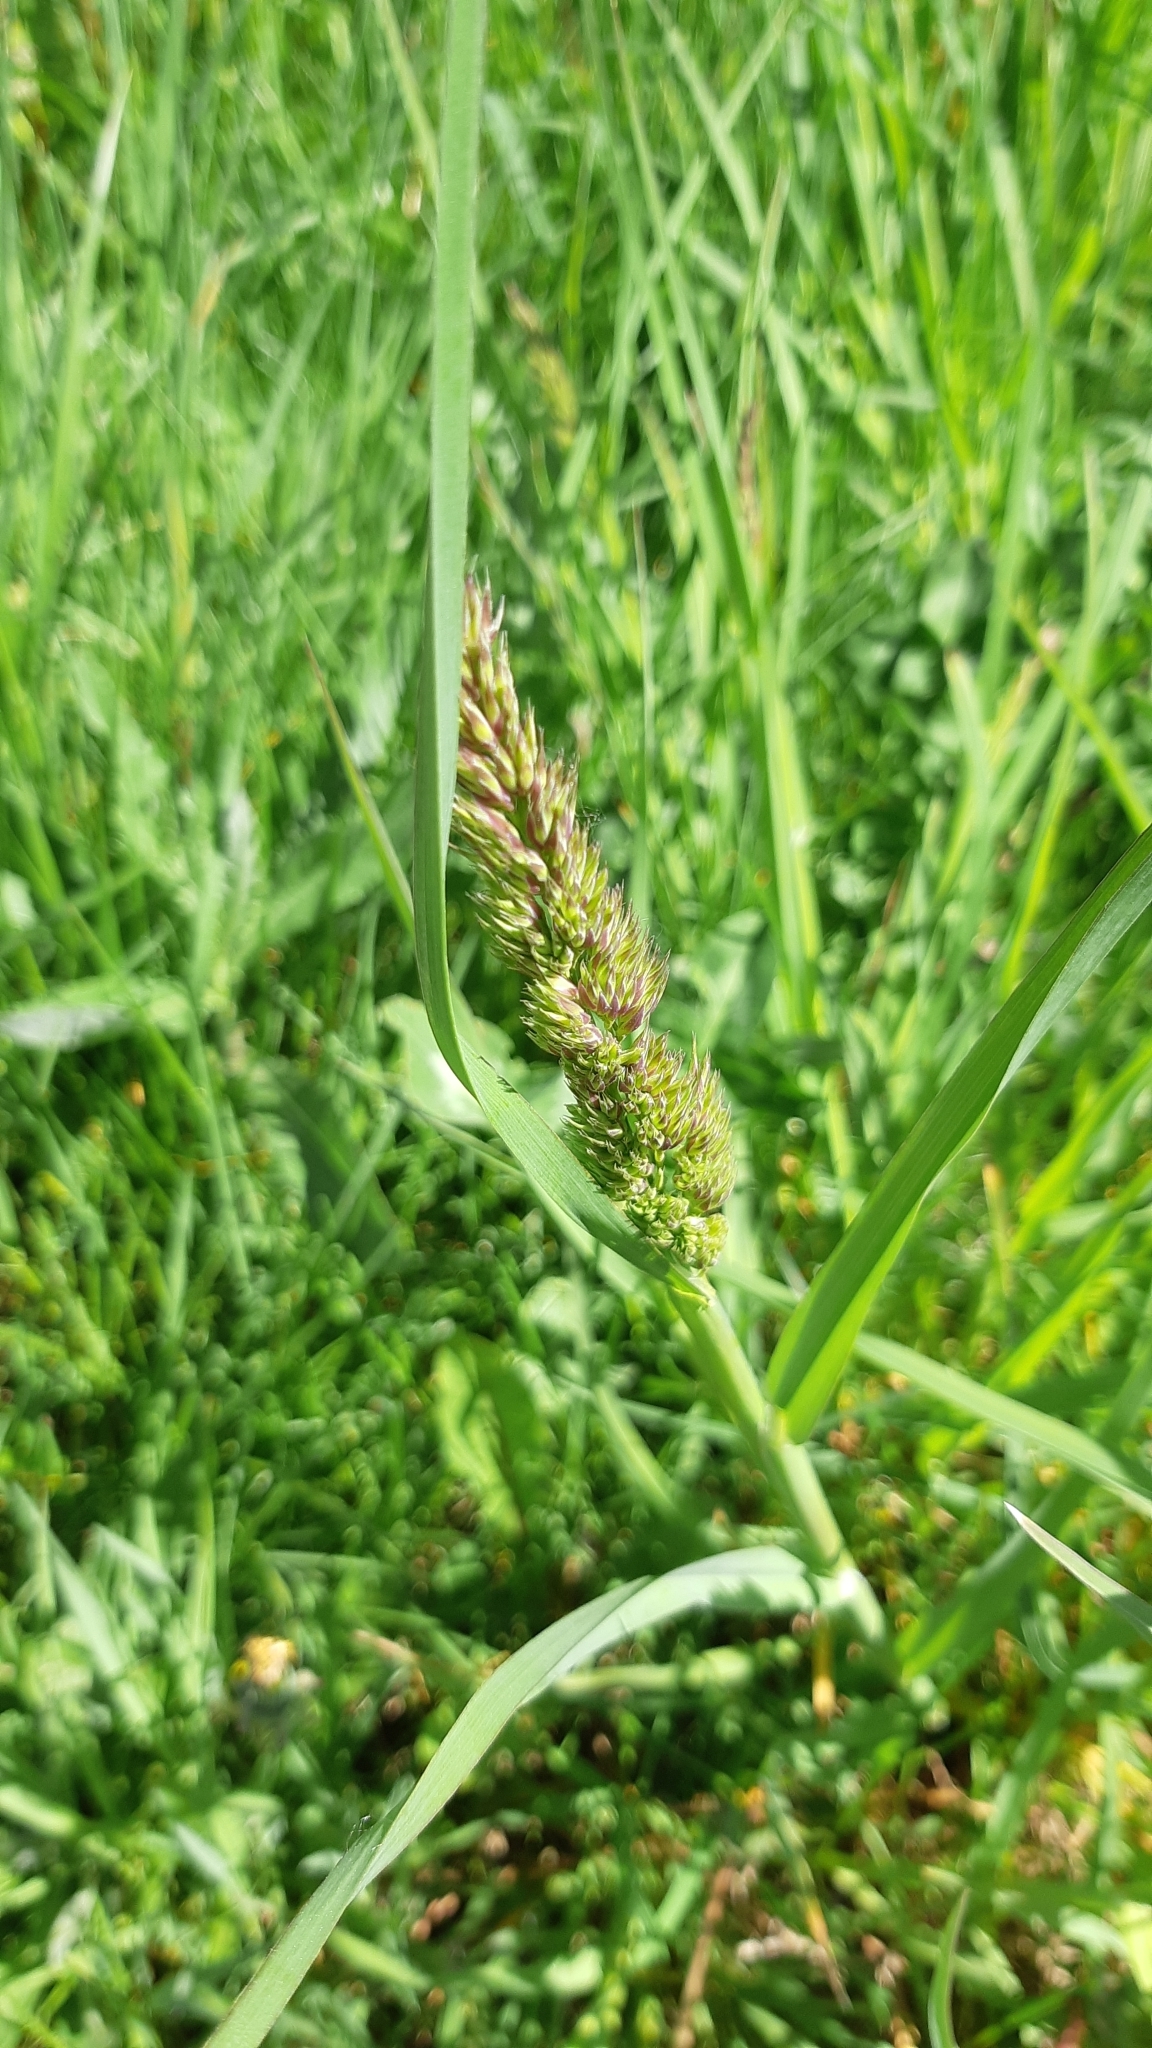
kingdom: Plantae
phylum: Tracheophyta
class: Liliopsida
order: Poales
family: Poaceae
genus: Dactylis
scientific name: Dactylis glomerata
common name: Orchardgrass
